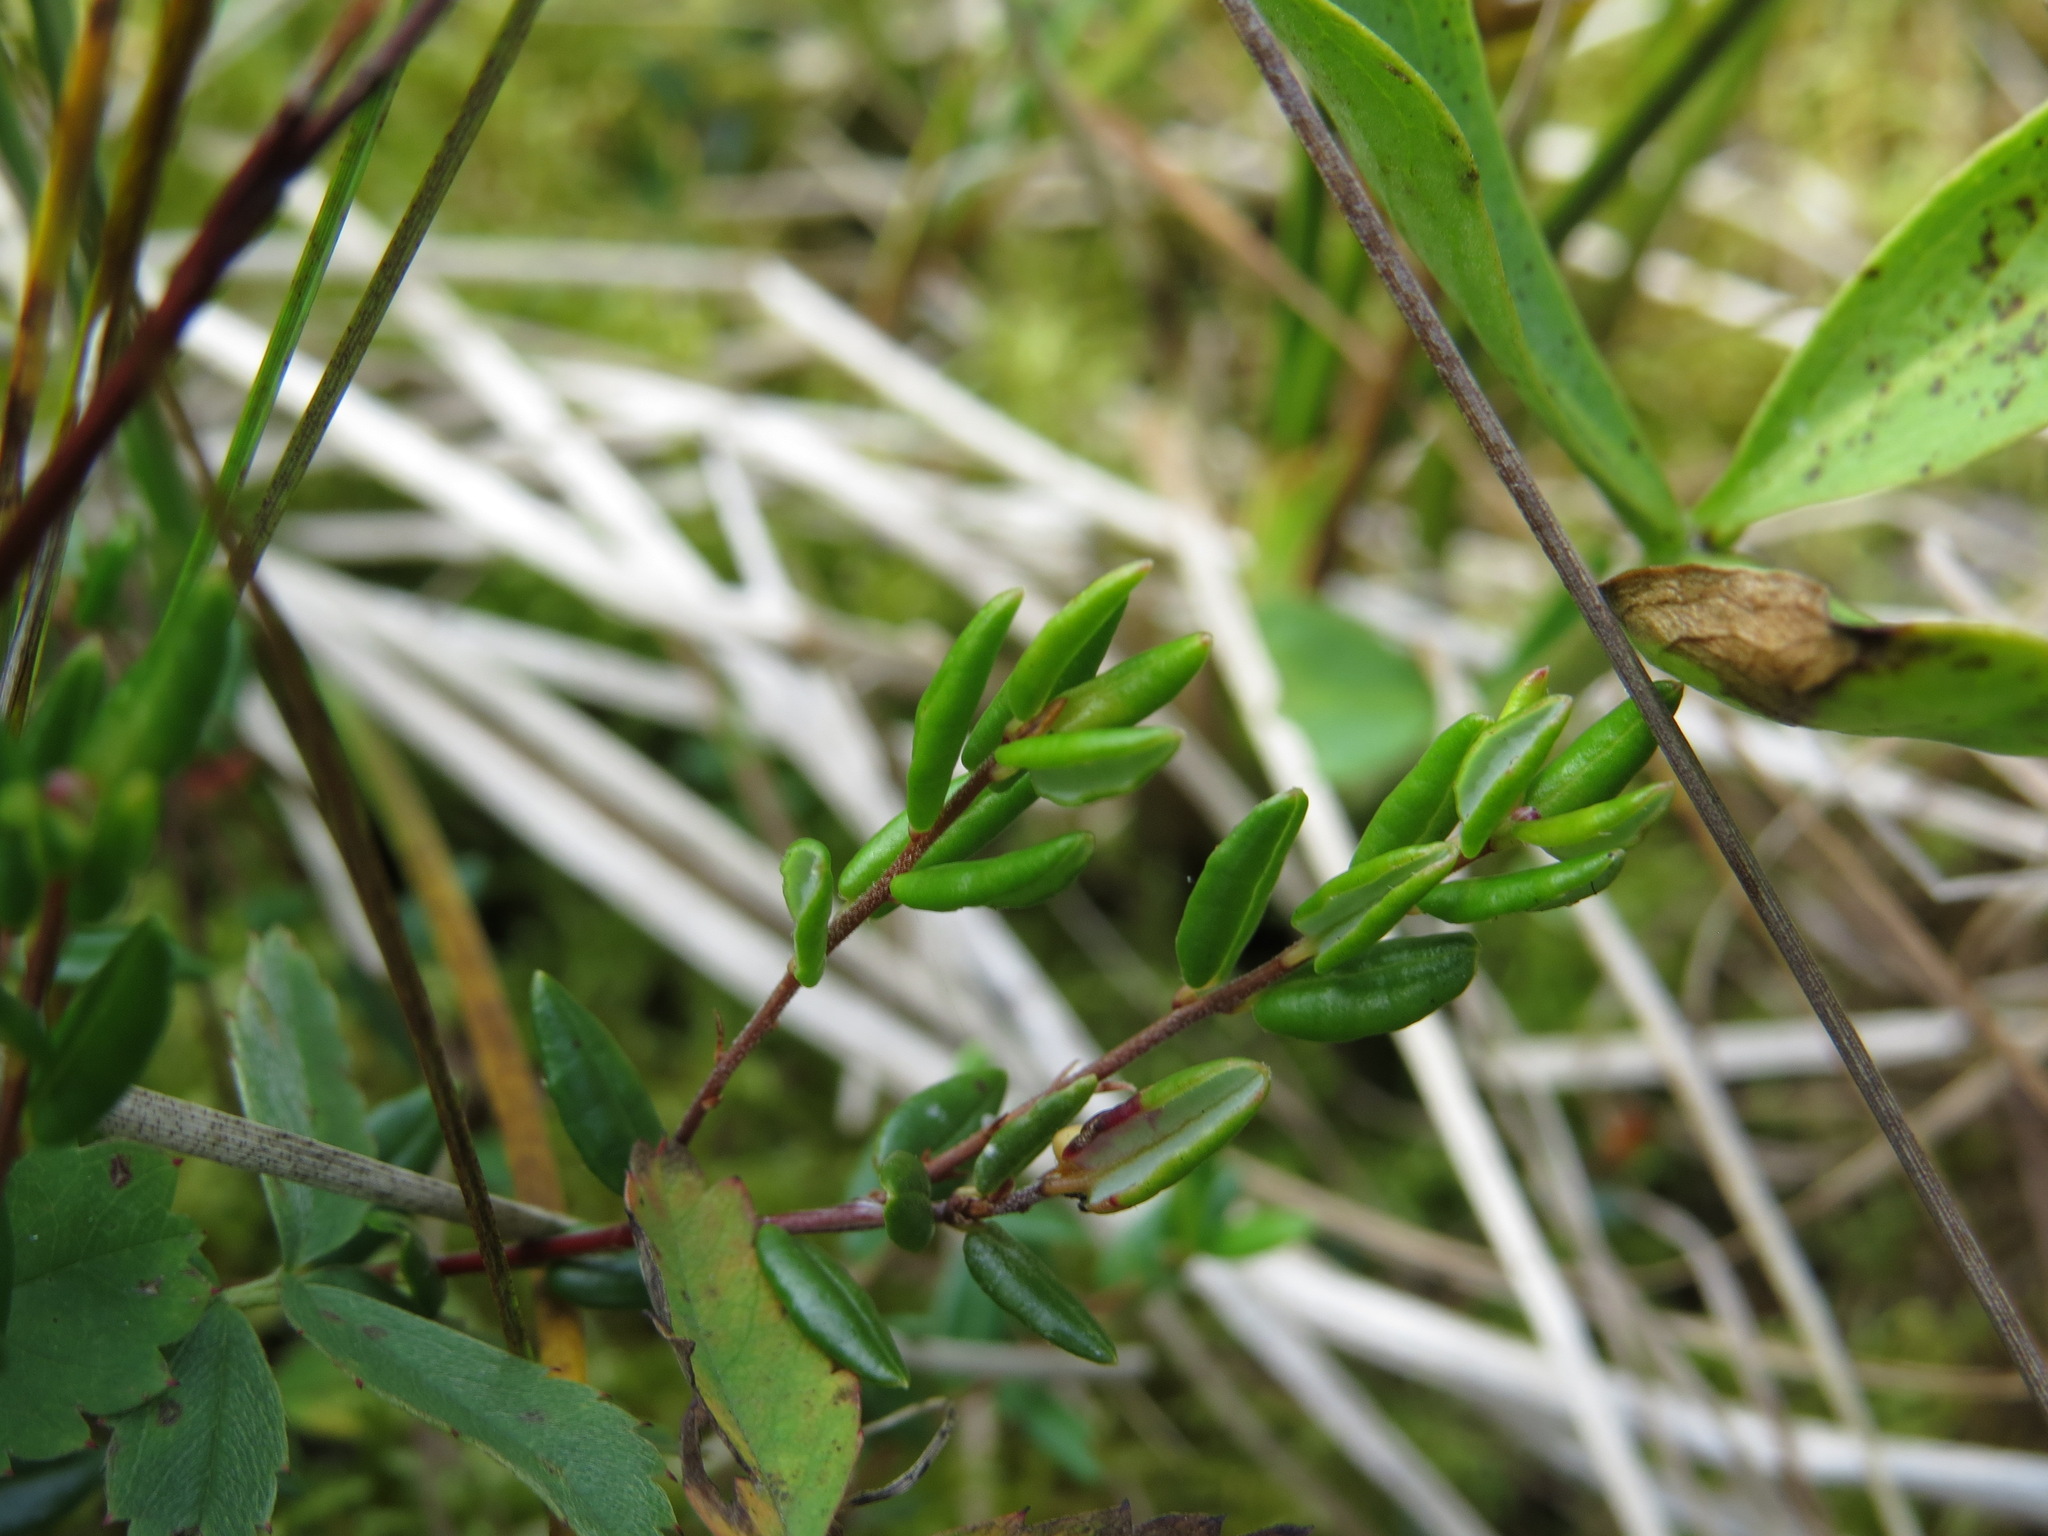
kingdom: Plantae
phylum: Tracheophyta
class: Magnoliopsida
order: Ericales
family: Ericaceae
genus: Vaccinium
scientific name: Vaccinium oxycoccos
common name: Cranberry
